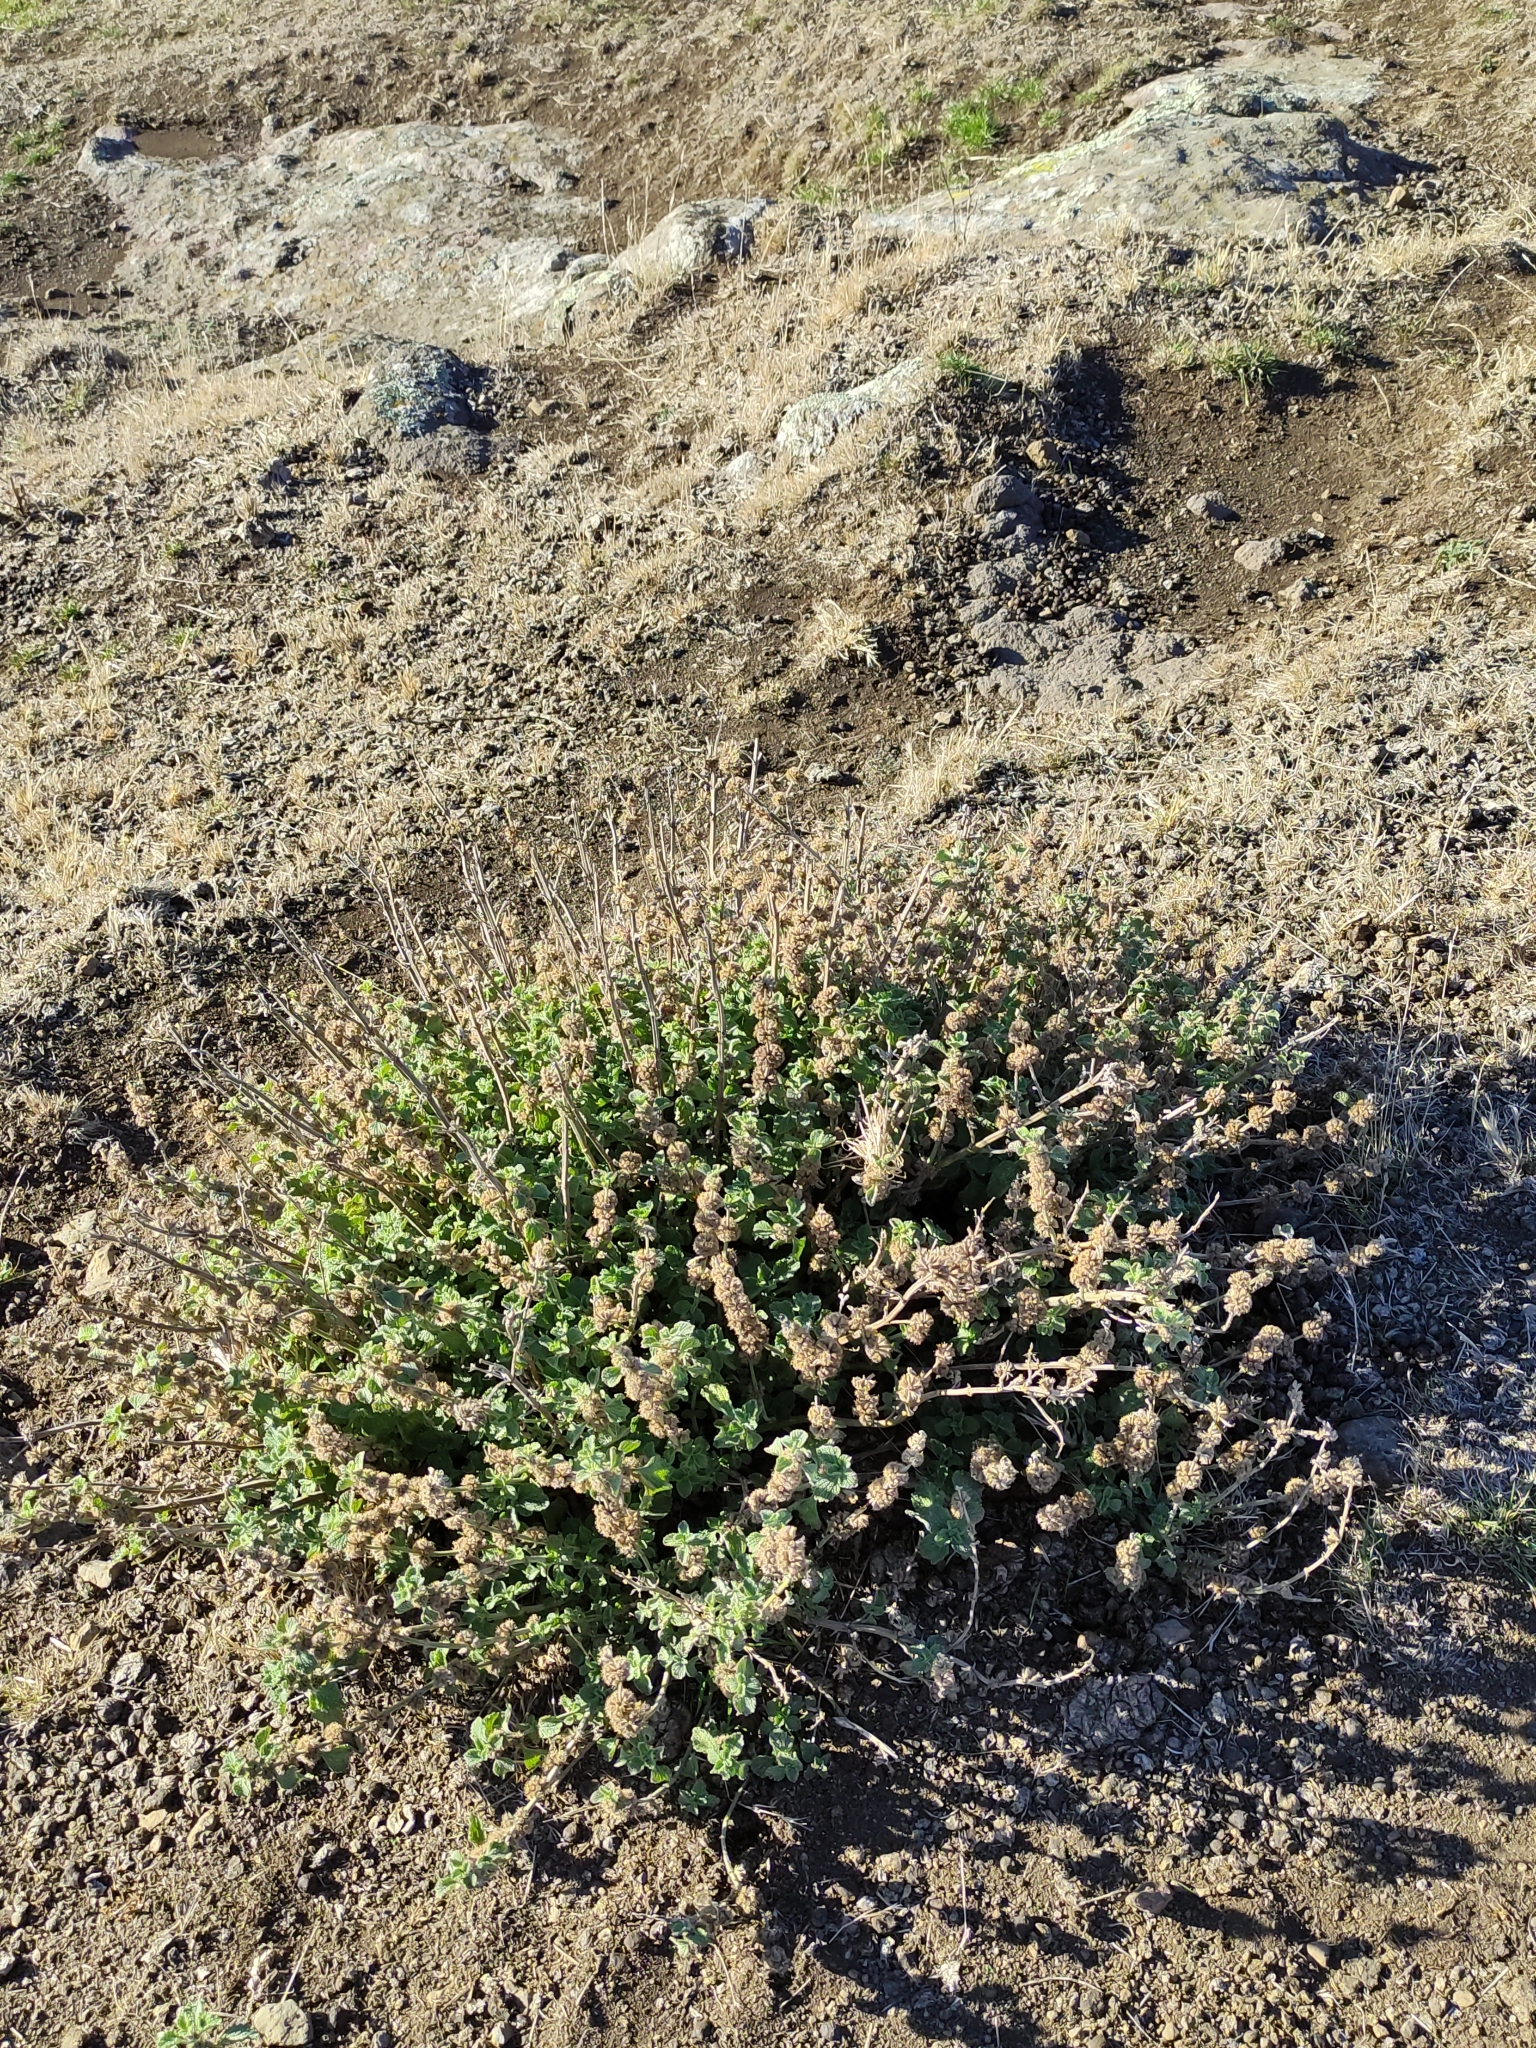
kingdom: Plantae
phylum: Tracheophyta
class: Magnoliopsida
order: Lamiales
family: Lamiaceae
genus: Marrubium
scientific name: Marrubium vulgare
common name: Horehound
